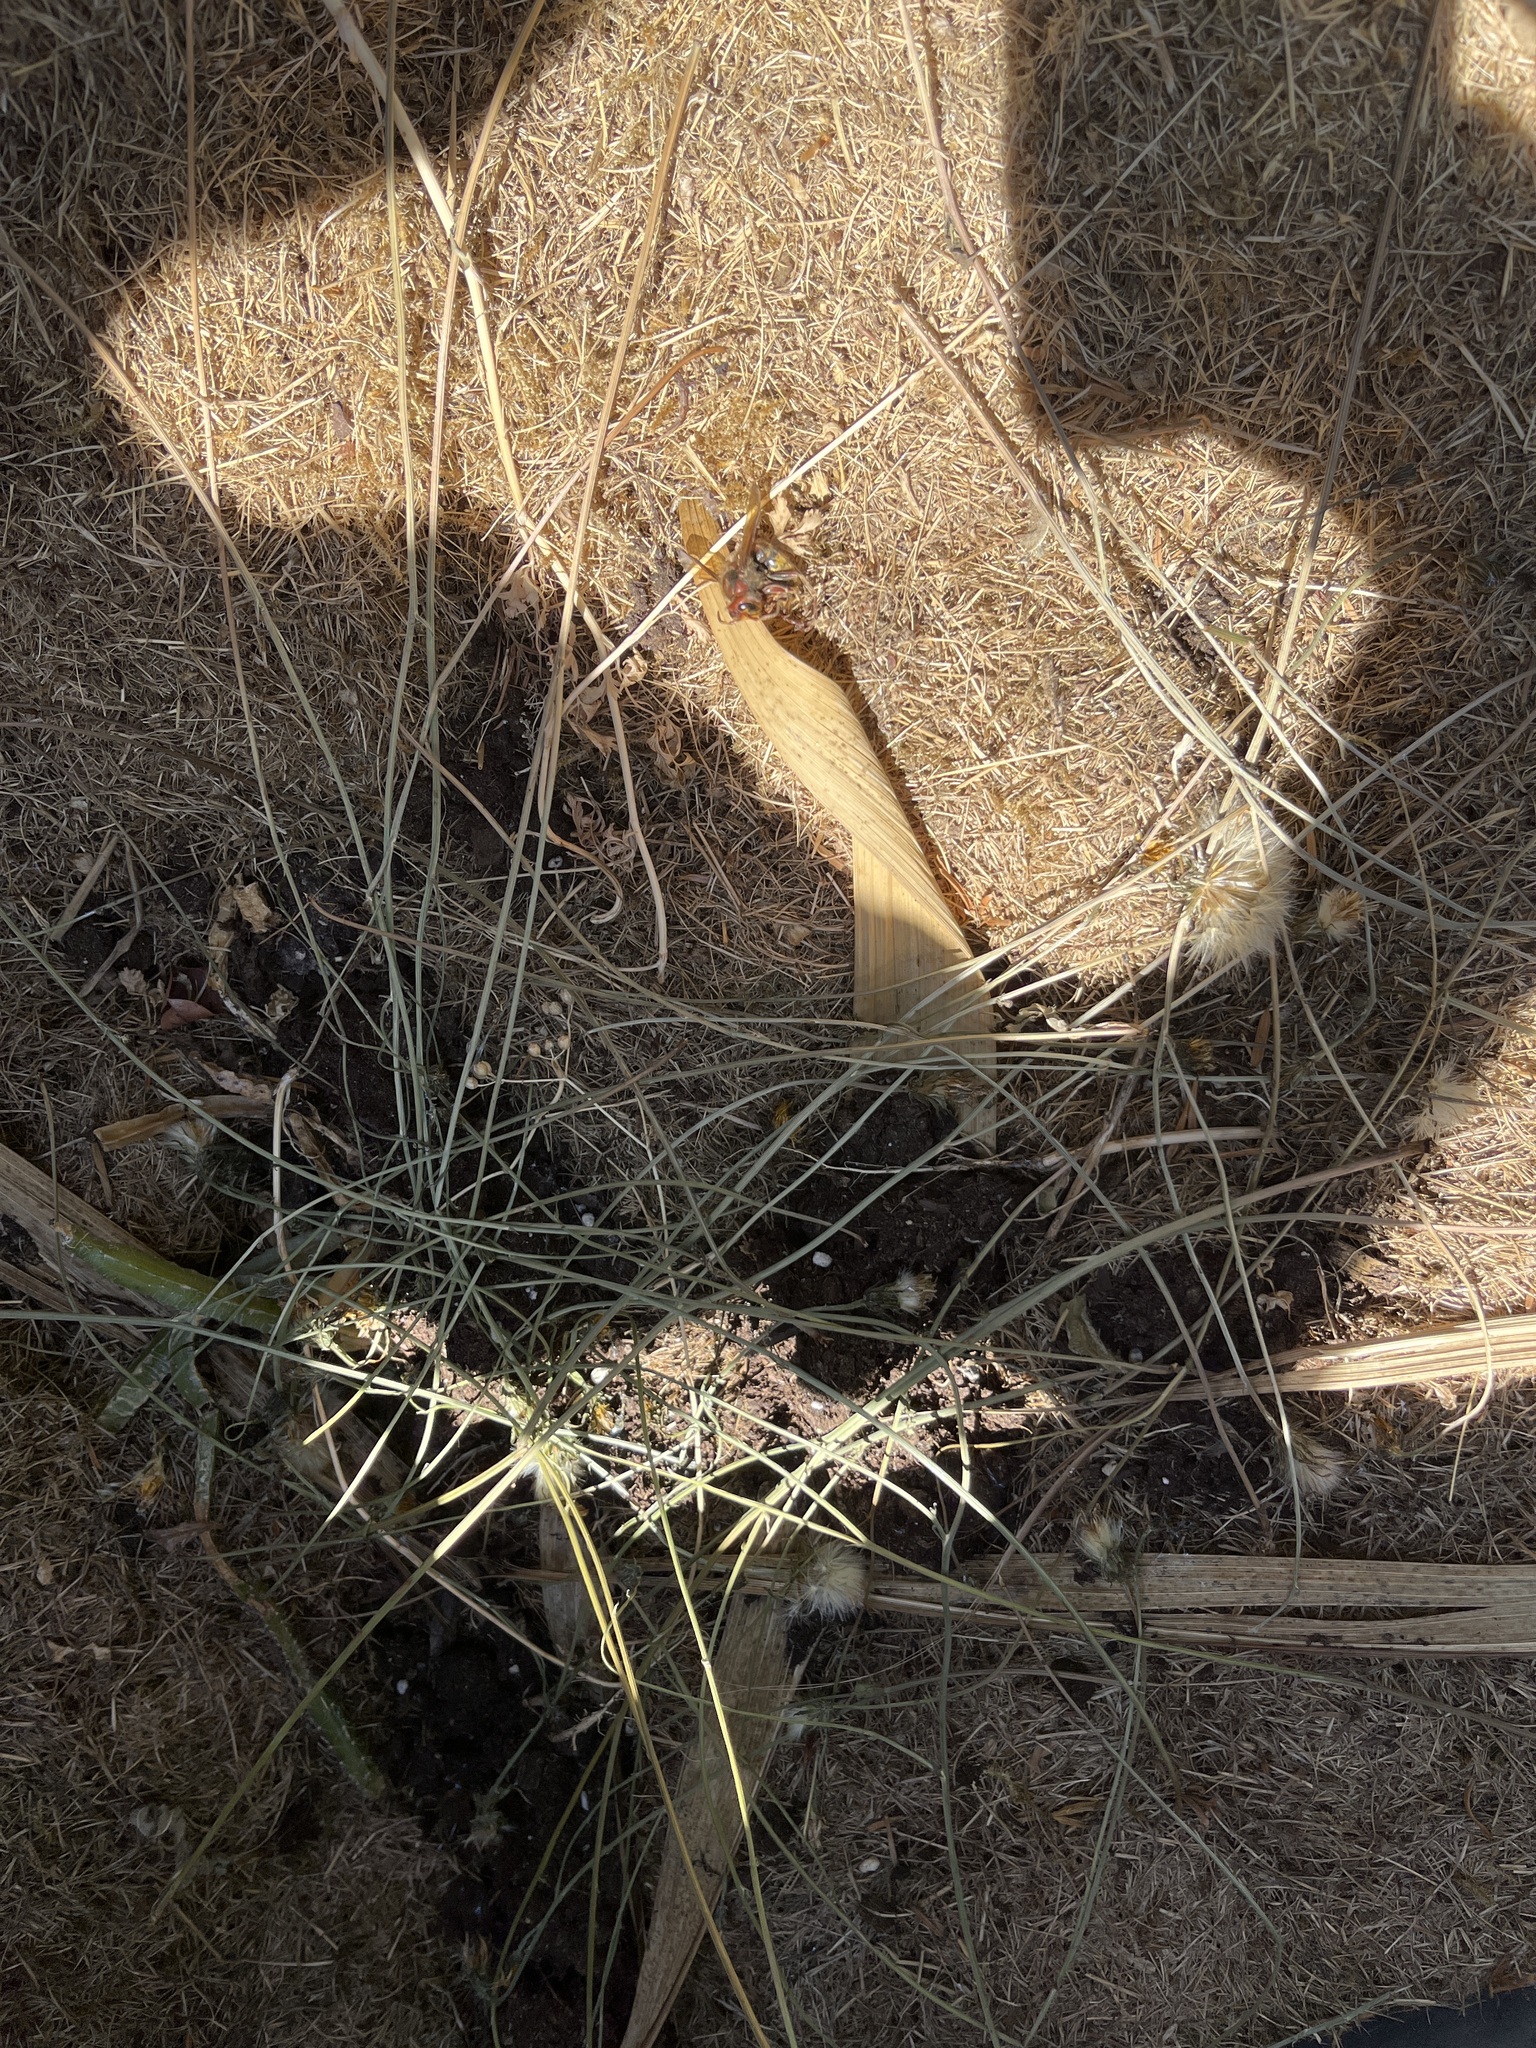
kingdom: Animalia
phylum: Arthropoda
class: Insecta
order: Hymenoptera
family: Vespidae
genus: Vespa
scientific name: Vespa crabro
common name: Hornet
